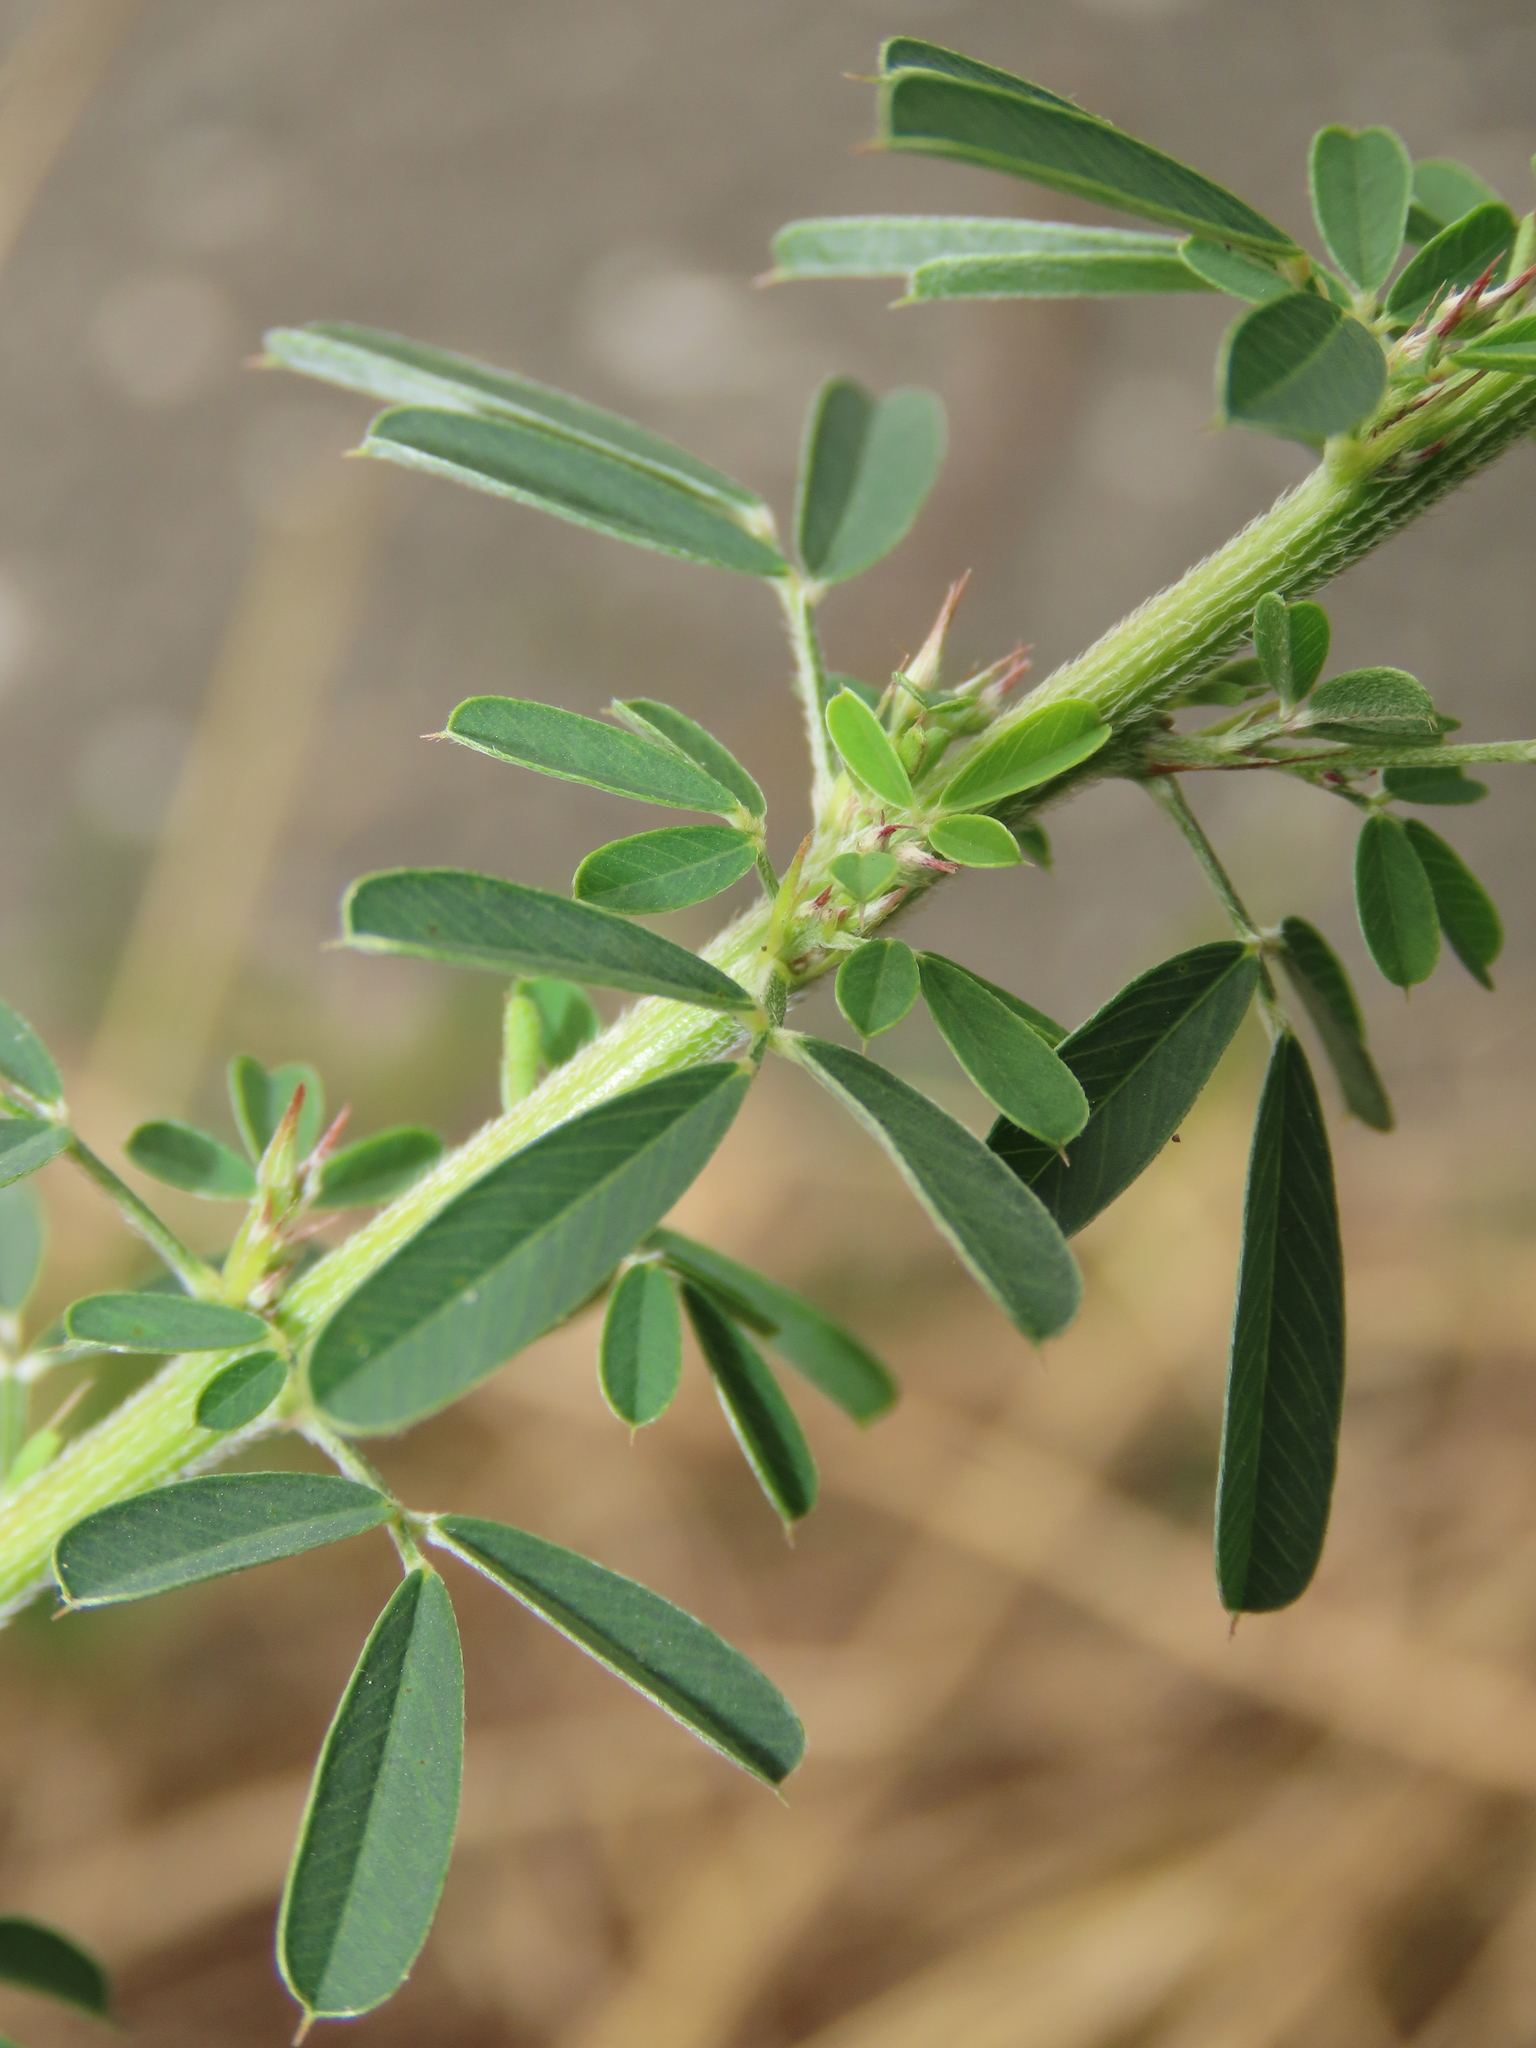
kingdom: Plantae
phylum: Tracheophyta
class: Magnoliopsida
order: Fabales
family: Fabaceae
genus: Lespedeza
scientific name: Lespedeza cuneata
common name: Chinese bush-clover
